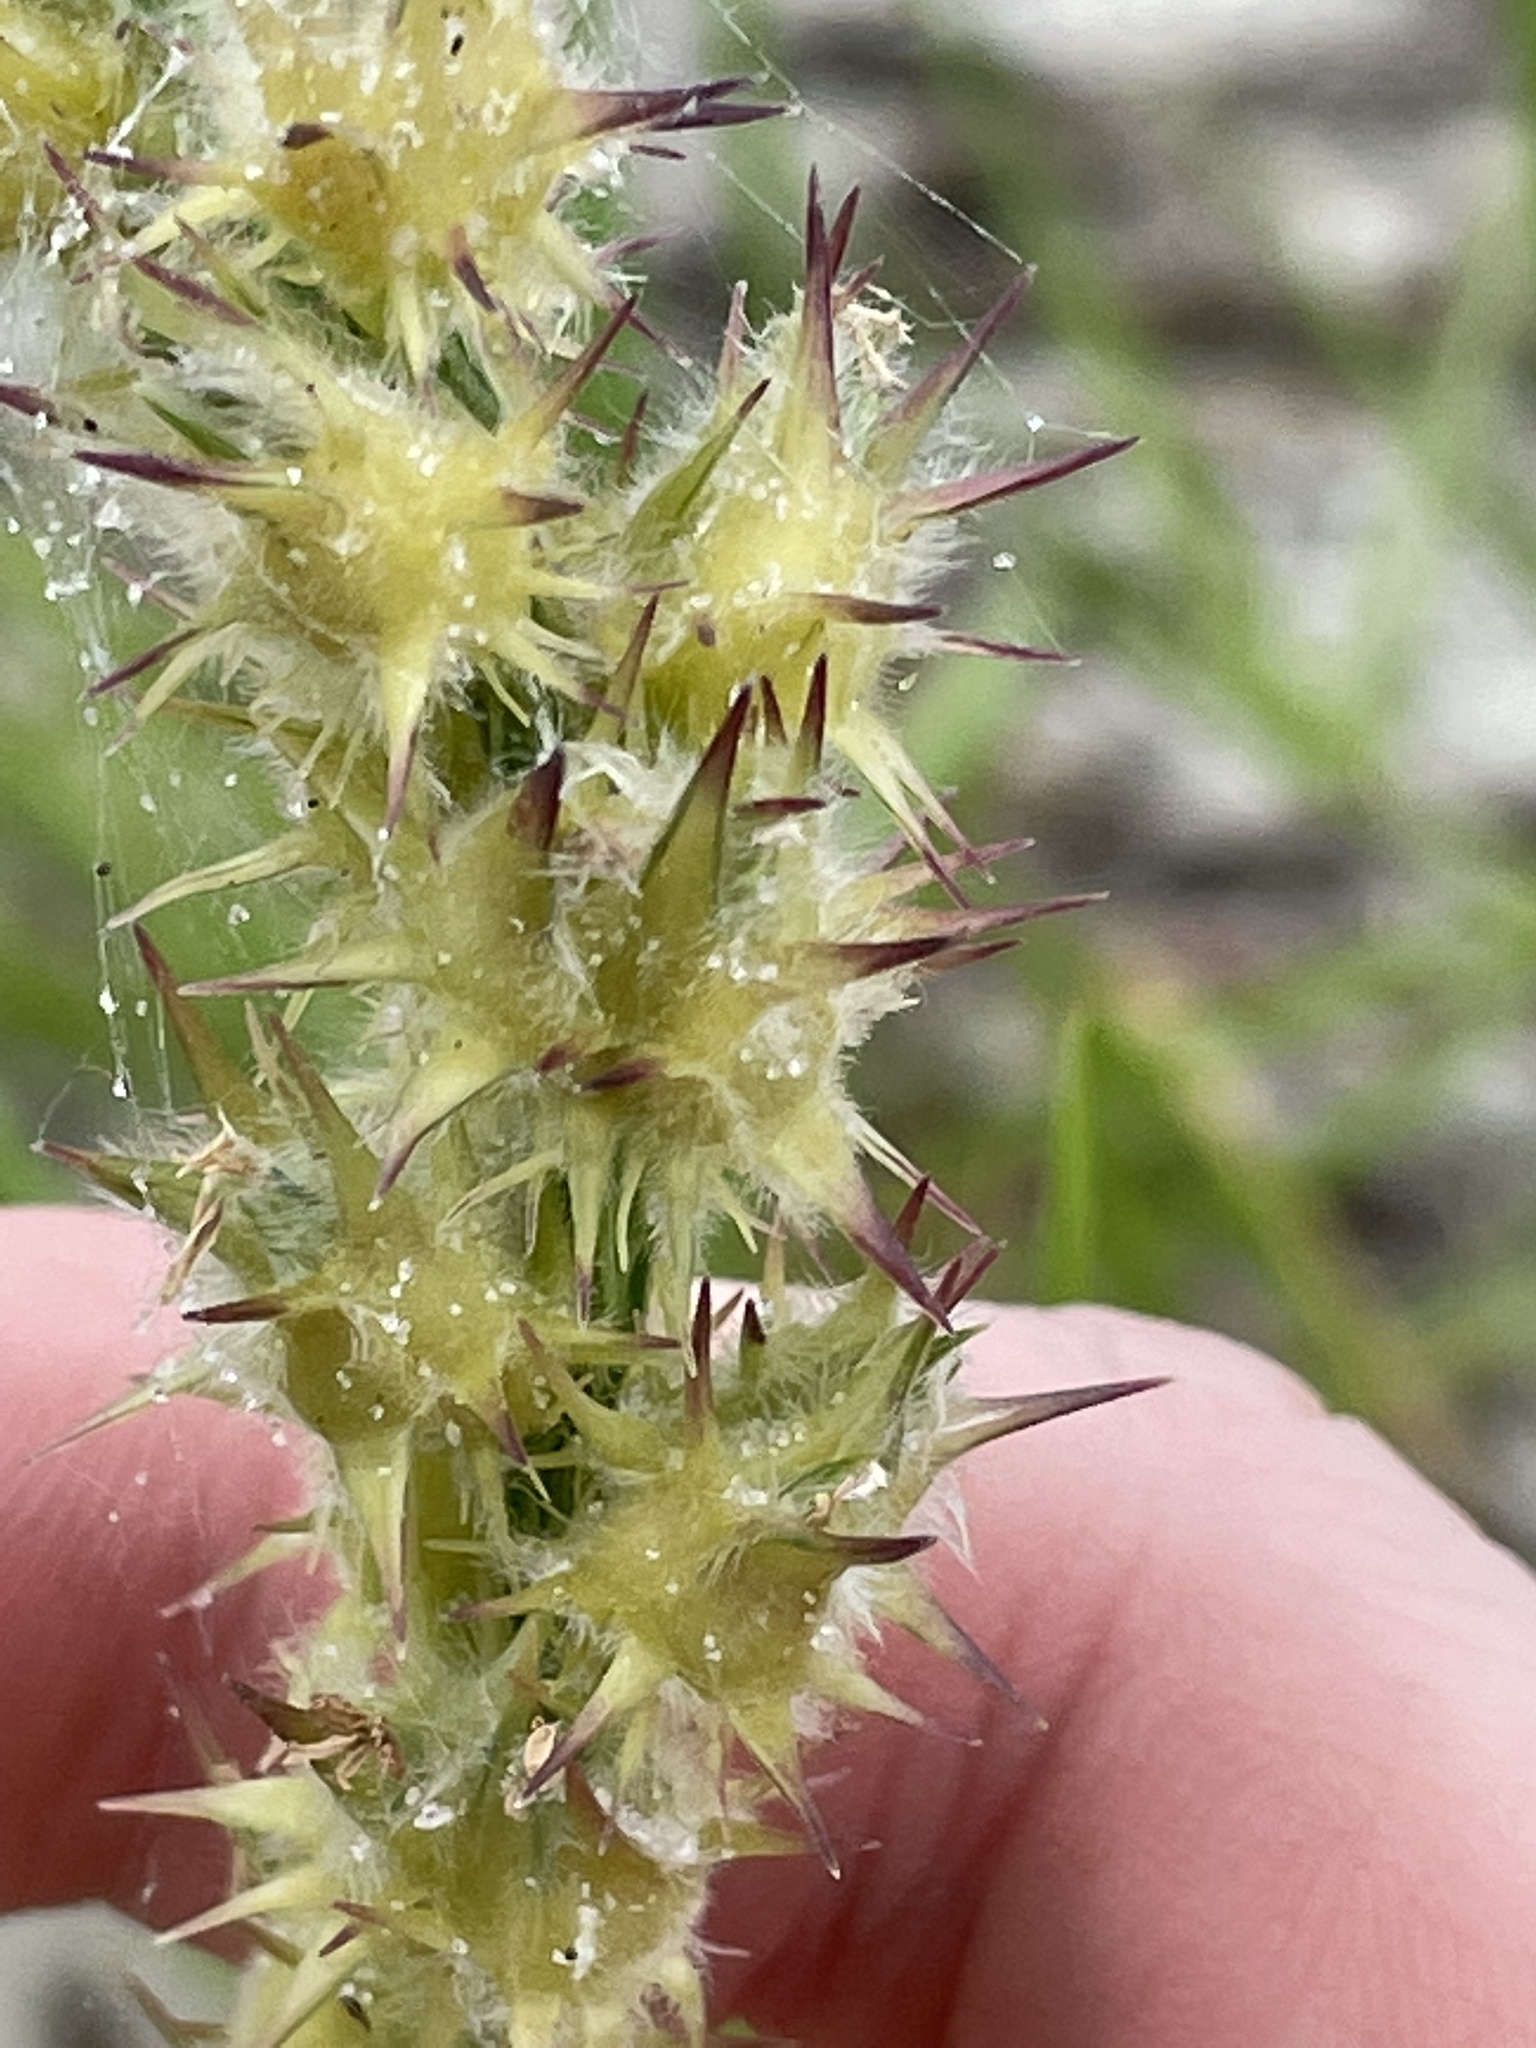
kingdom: Plantae
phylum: Tracheophyta
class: Liliopsida
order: Poales
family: Poaceae
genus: Cenchrus
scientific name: Cenchrus tribuloides
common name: Dune sandbur
